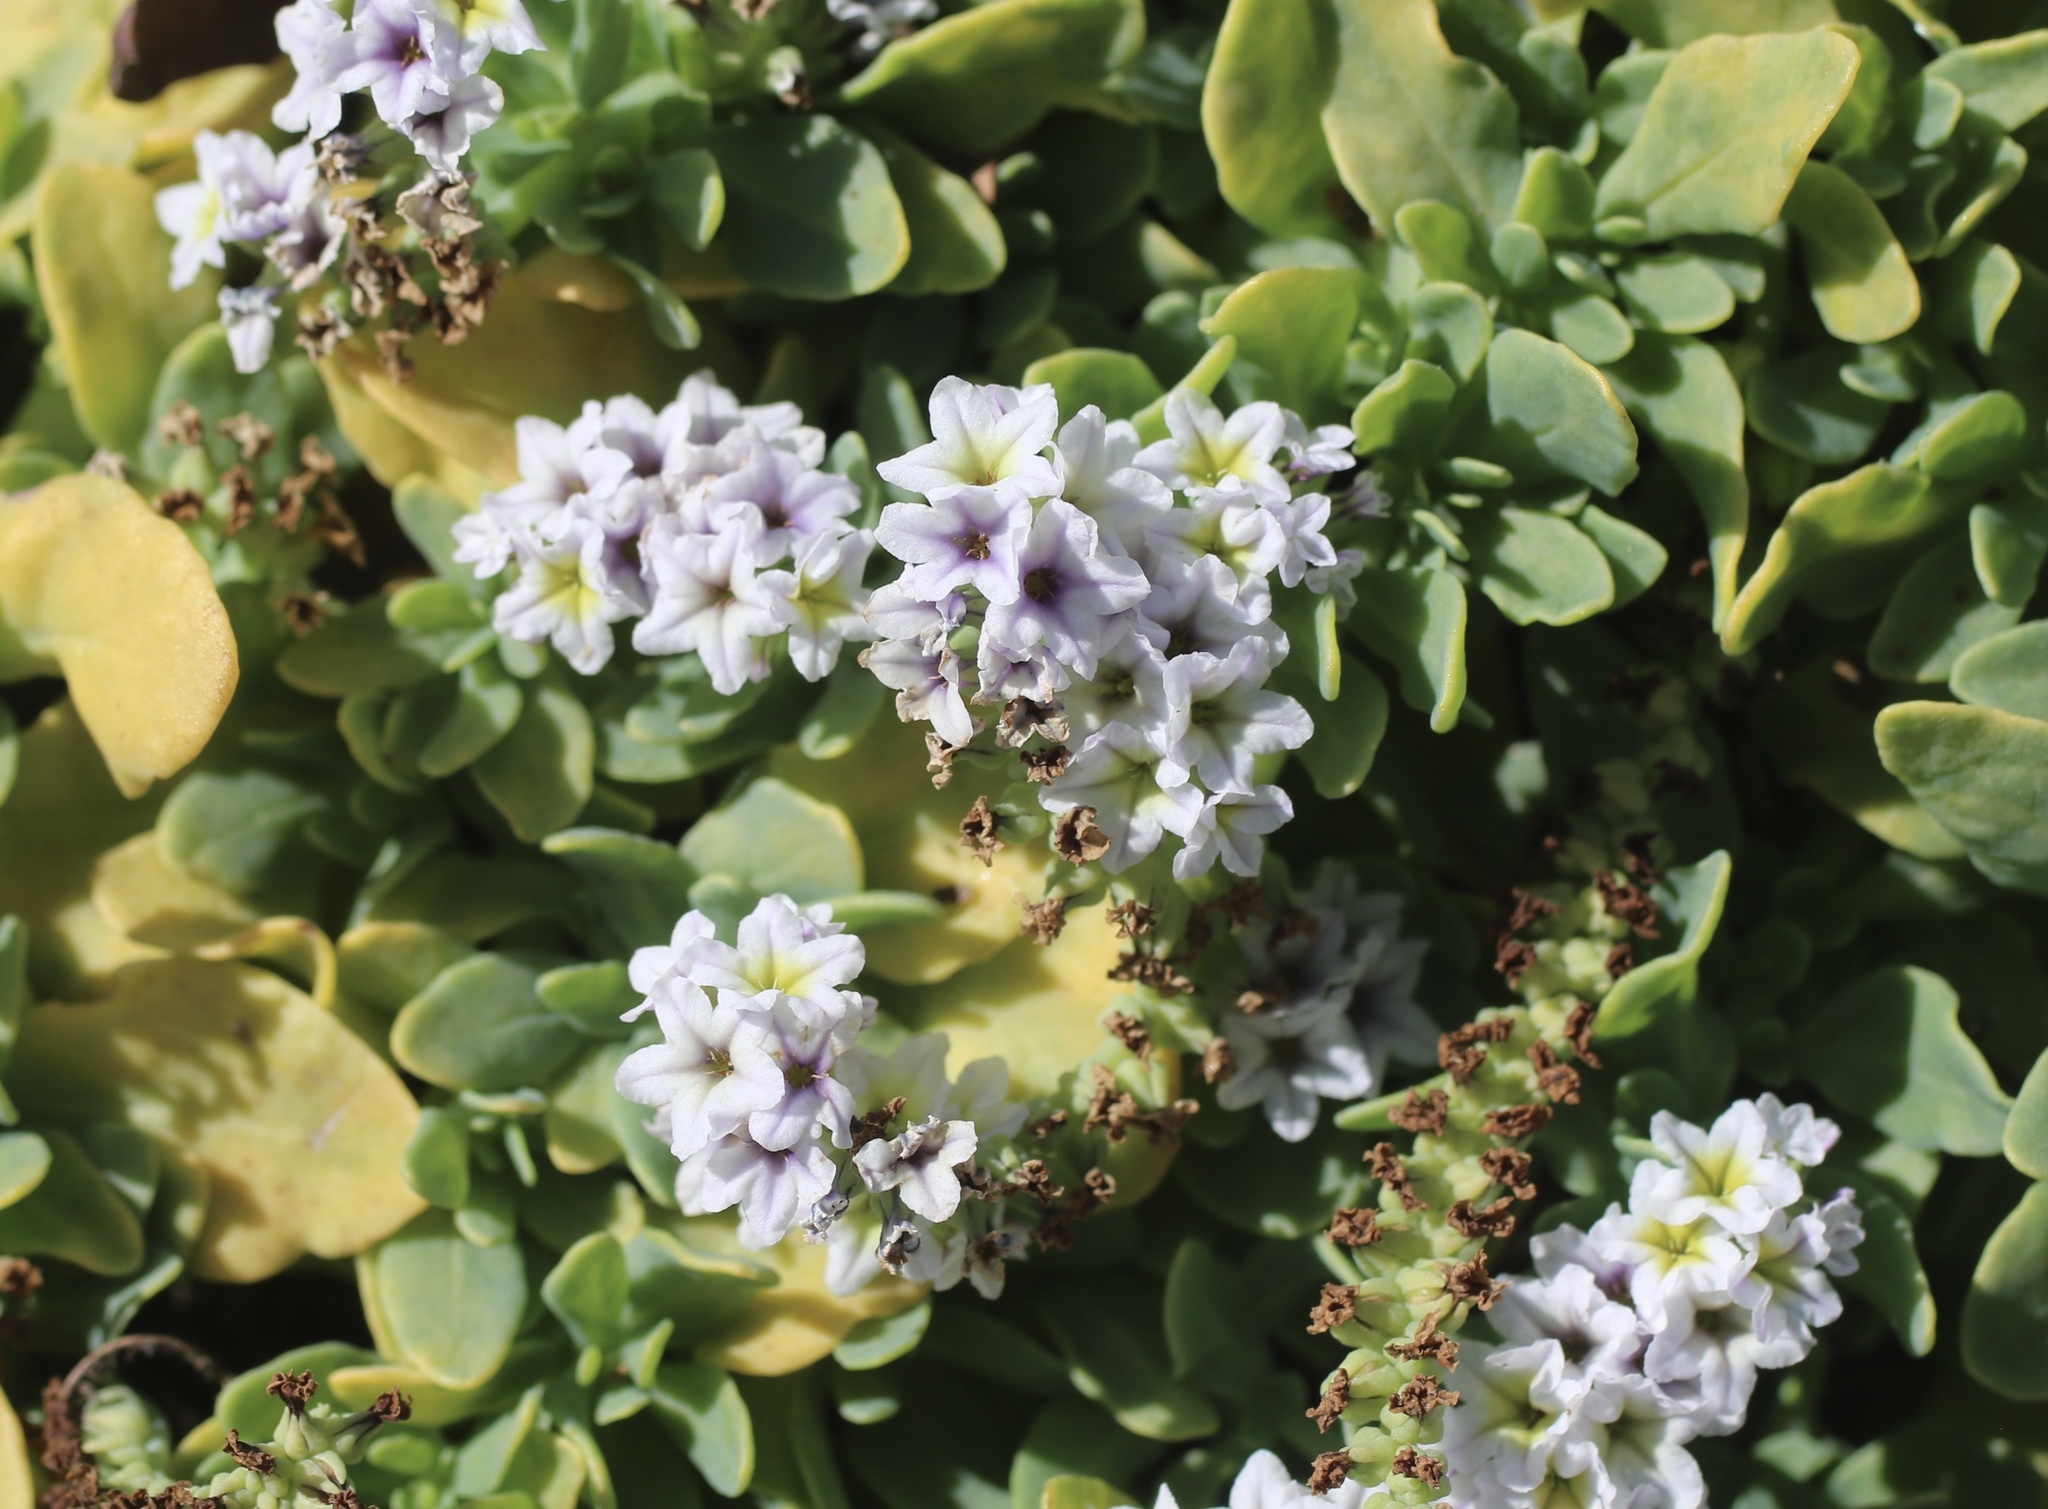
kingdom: Plantae
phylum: Tracheophyta
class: Magnoliopsida
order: Boraginales
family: Heliotropiaceae
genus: Heliotropium
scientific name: Heliotropium curassavicum
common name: Seaside heliotrope
